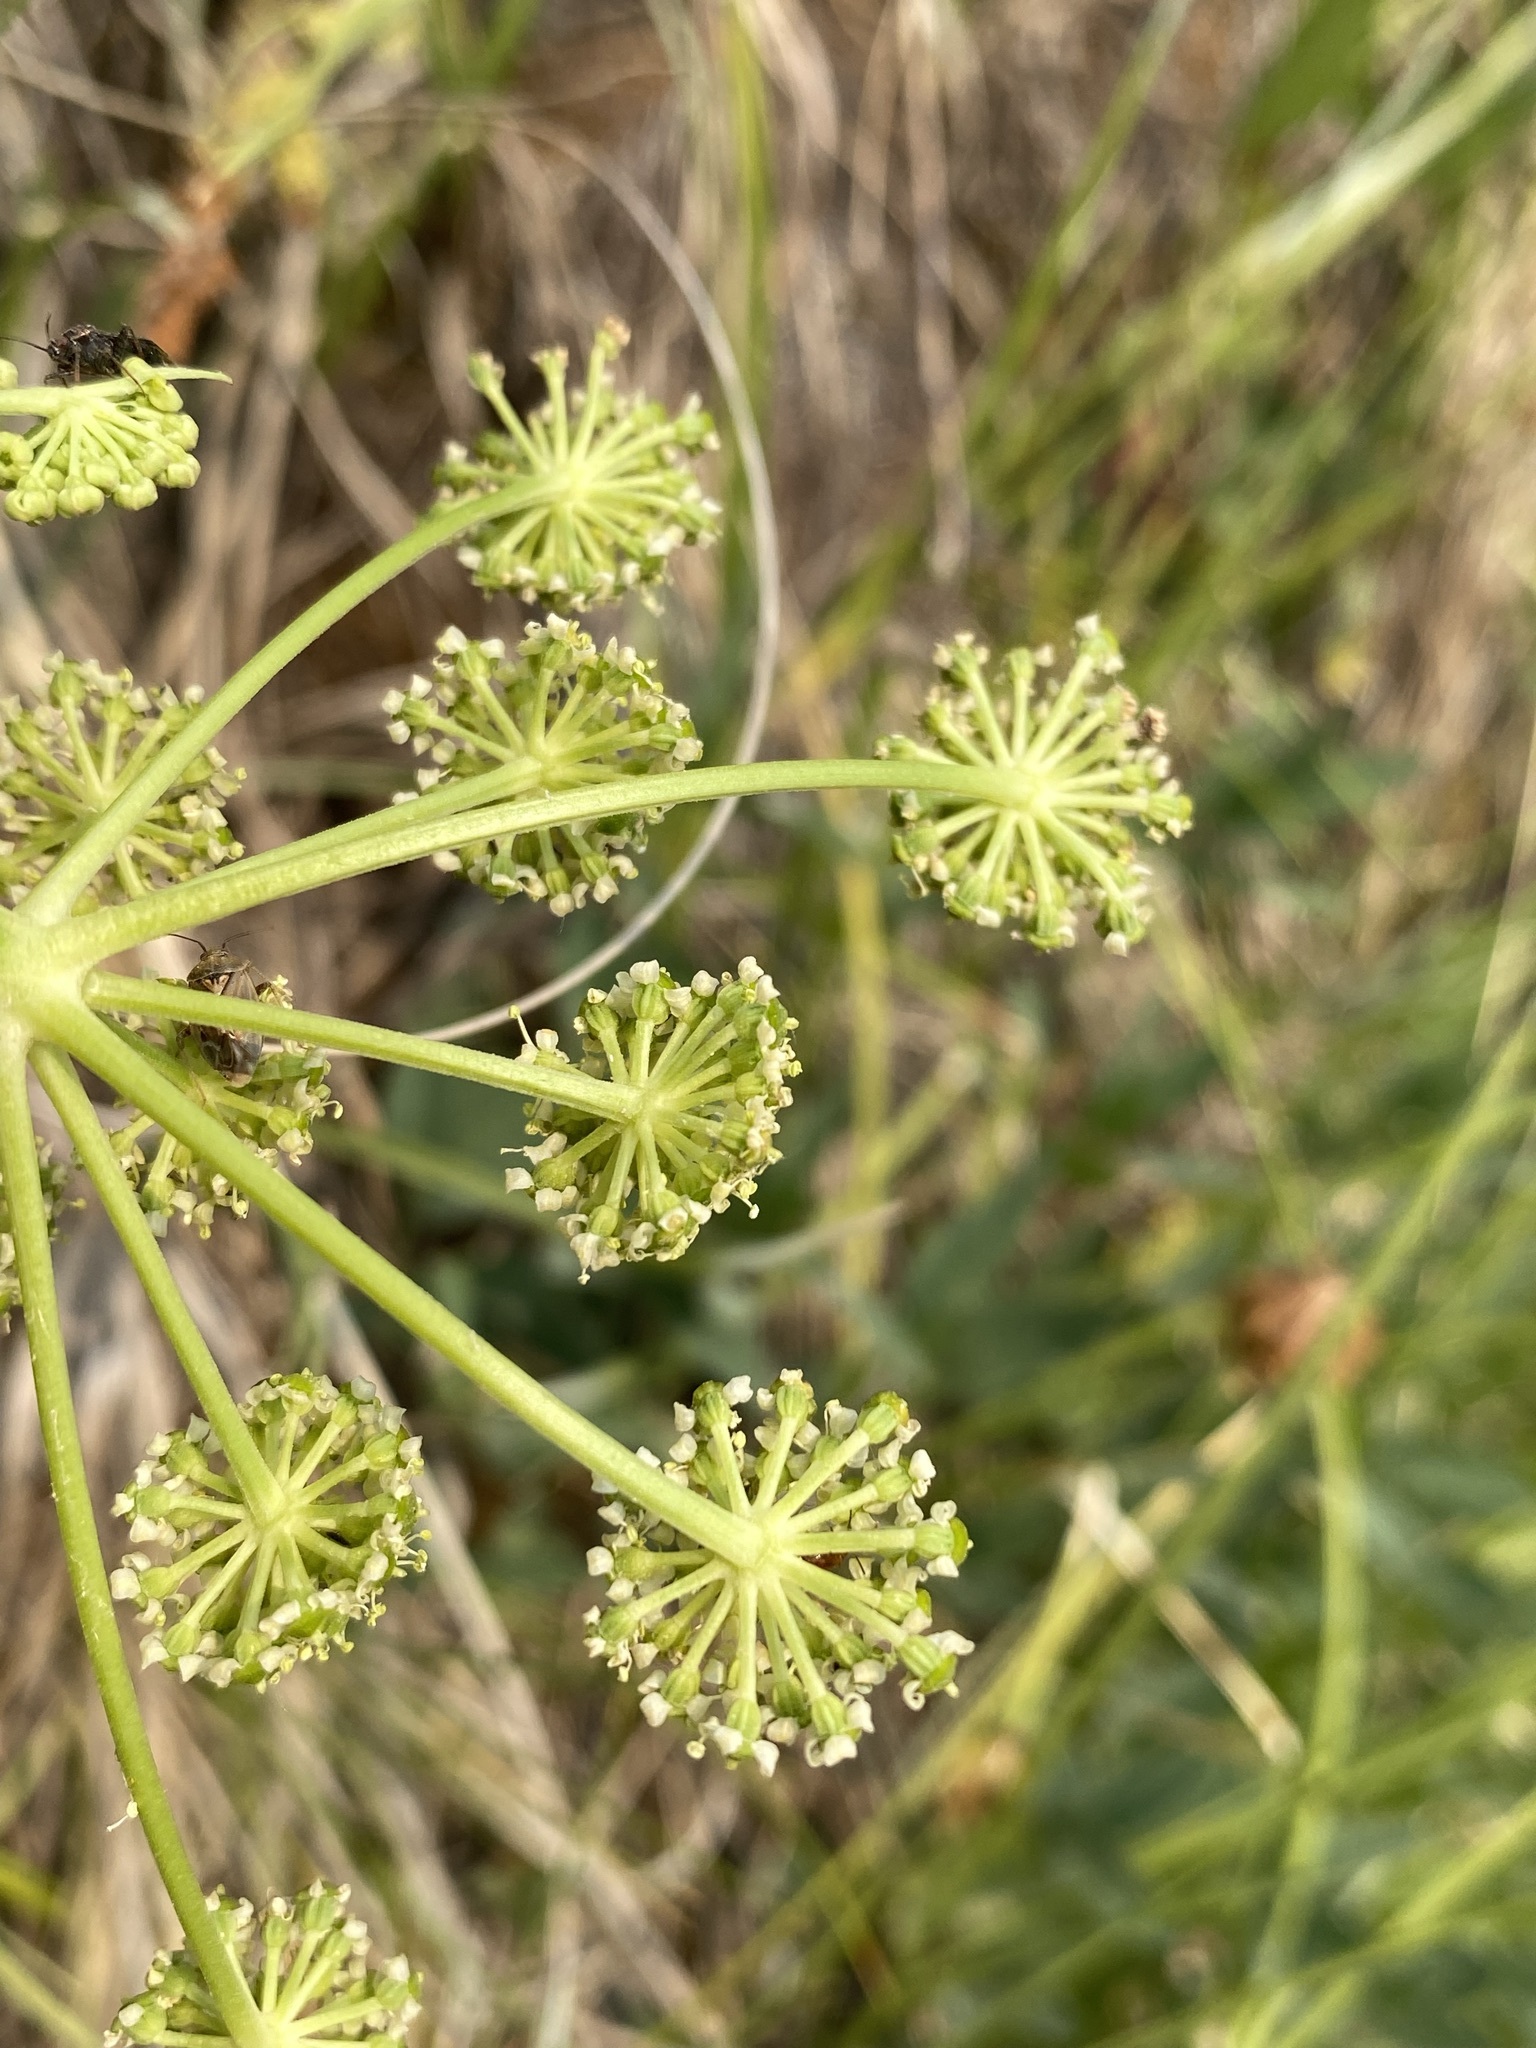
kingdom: Plantae
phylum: Tracheophyta
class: Magnoliopsida
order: Apiales
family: Apiaceae
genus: Angelica
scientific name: Angelica pinnata
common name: Littleleaf angelica
